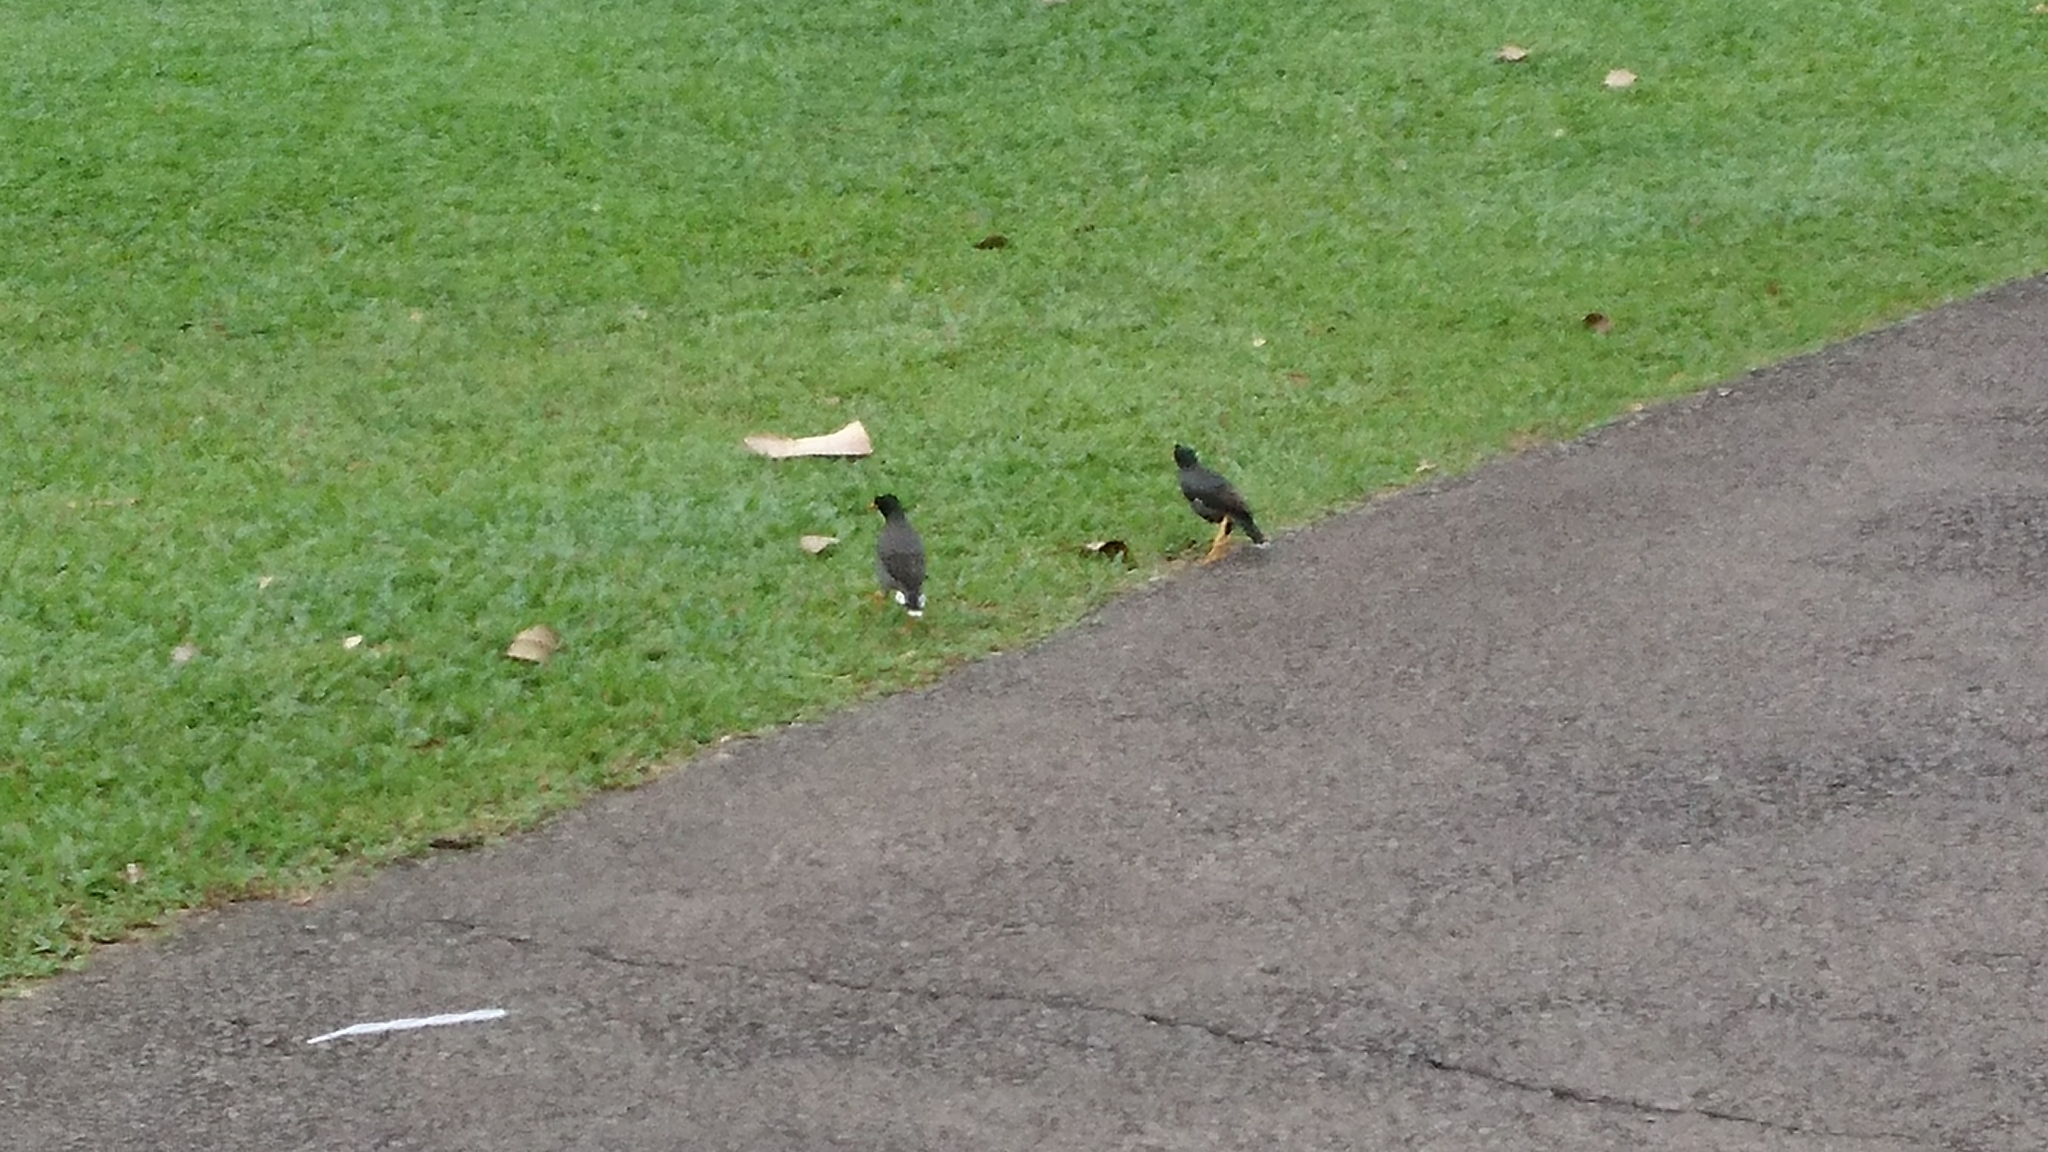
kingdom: Animalia
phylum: Chordata
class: Aves
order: Passeriformes
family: Sturnidae
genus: Acridotheres
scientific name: Acridotheres javanicus
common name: Javan myna
